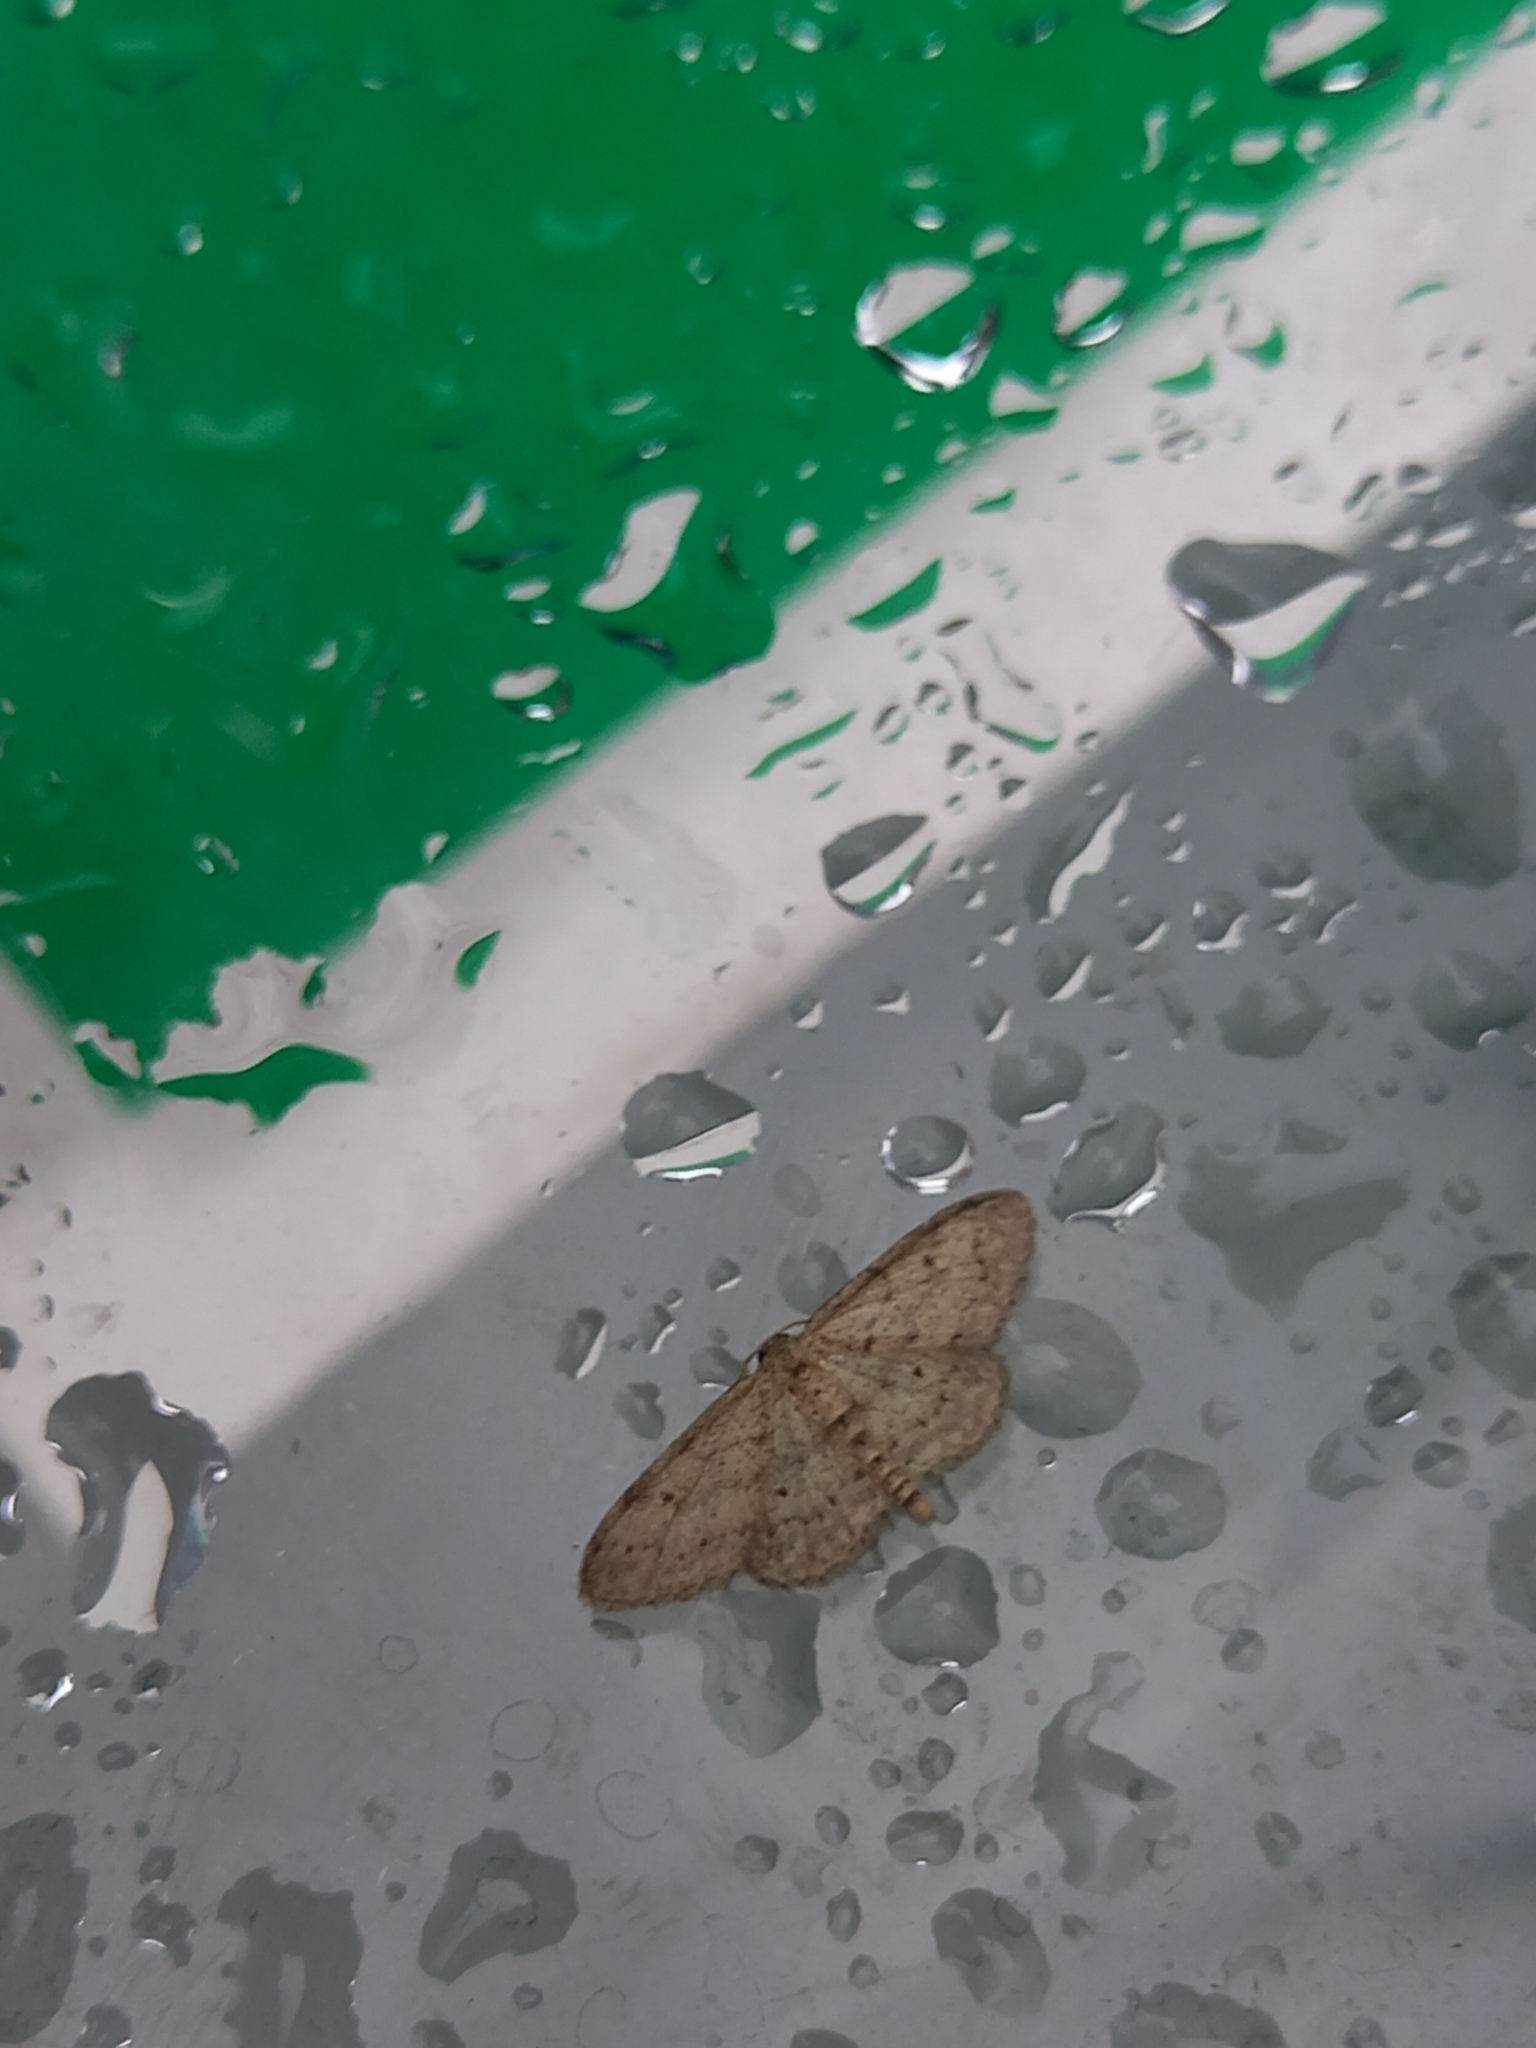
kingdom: Animalia
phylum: Arthropoda
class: Insecta
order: Lepidoptera
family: Geometridae
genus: Idaea
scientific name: Idaea seriata
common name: Small dusty wave
